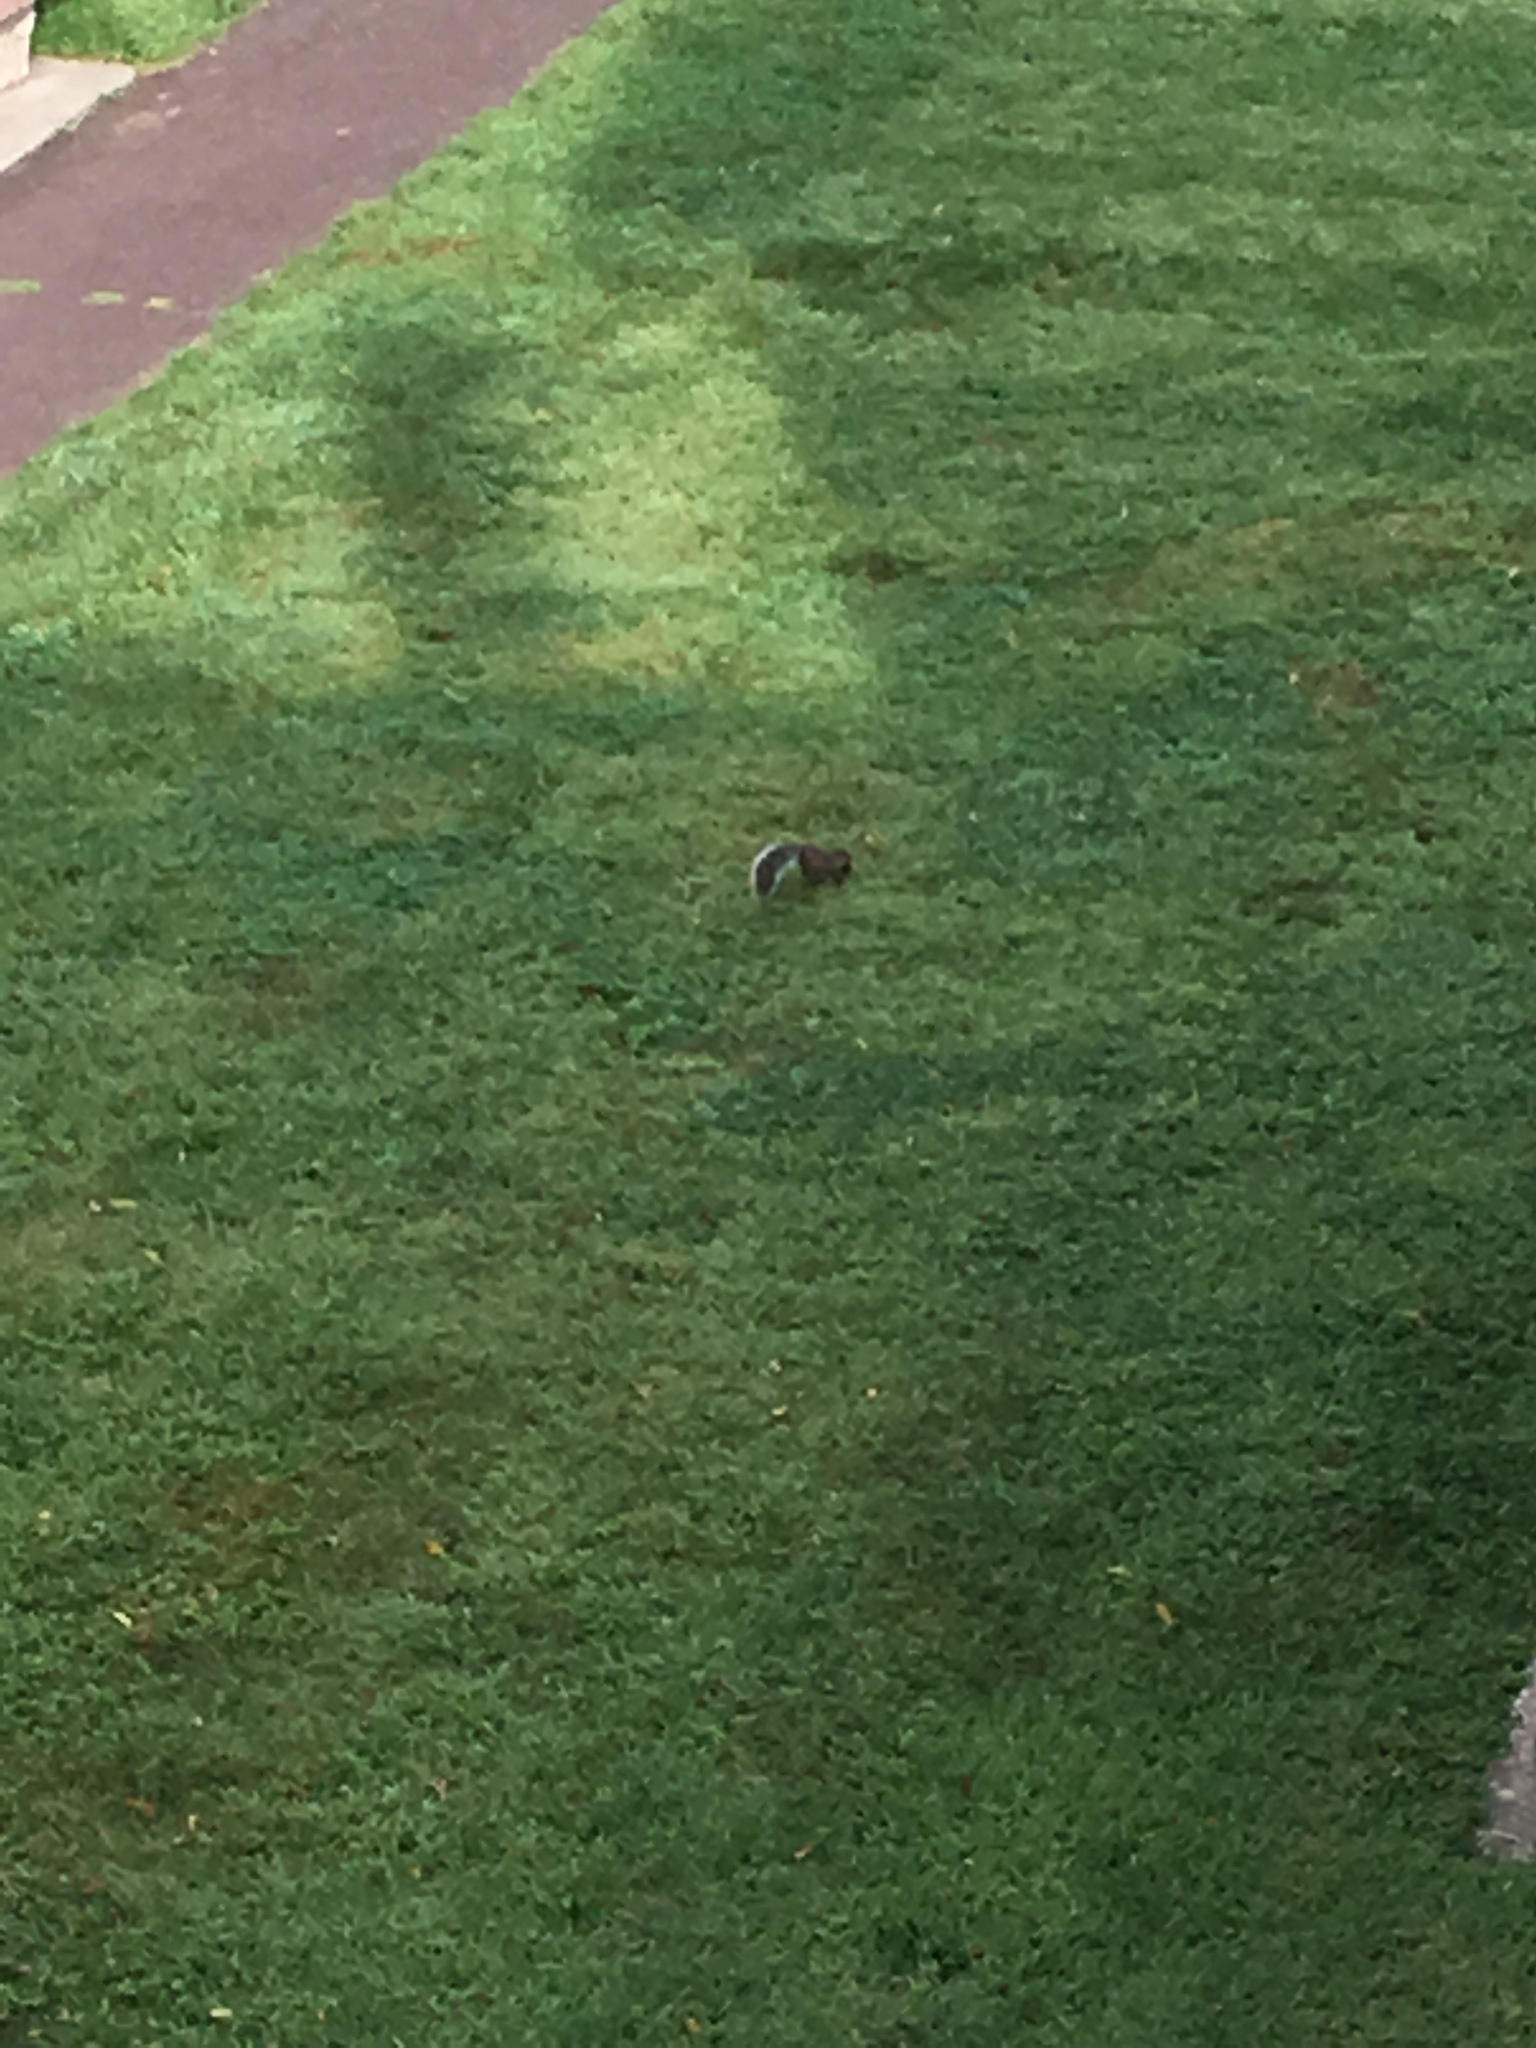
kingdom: Animalia
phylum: Chordata
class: Mammalia
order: Rodentia
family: Sciuridae
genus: Sciurus
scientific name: Sciurus carolinensis
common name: Eastern gray squirrel
